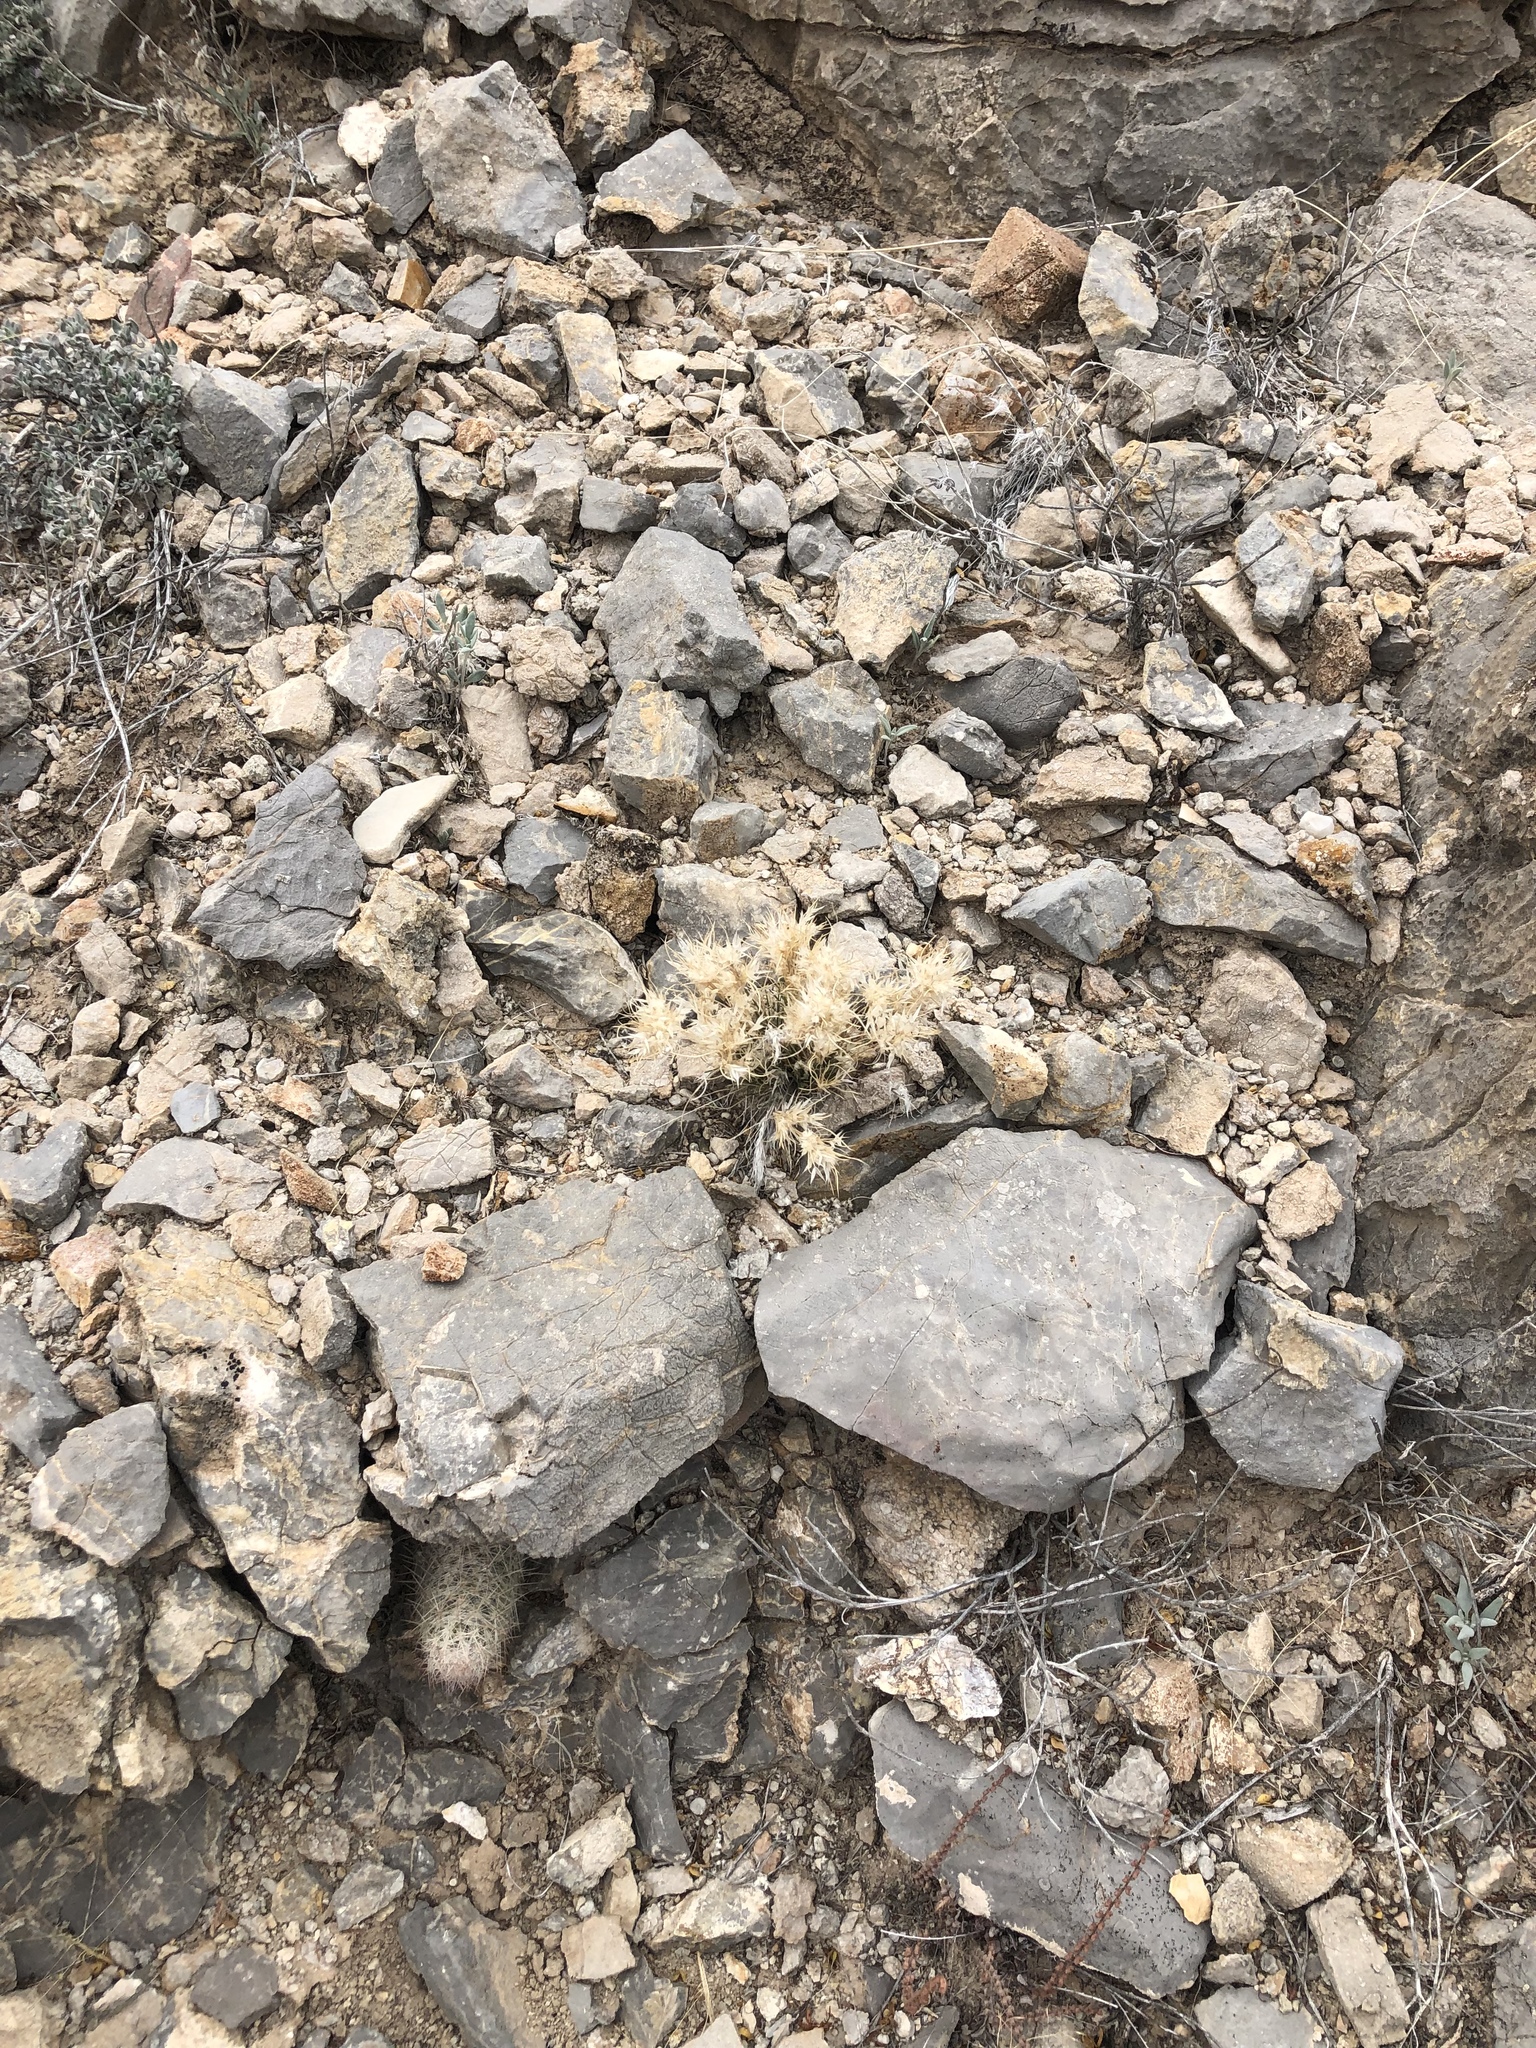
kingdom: Plantae
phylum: Tracheophyta
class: Liliopsida
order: Poales
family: Poaceae
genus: Dasyochloa
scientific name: Dasyochloa pulchella
